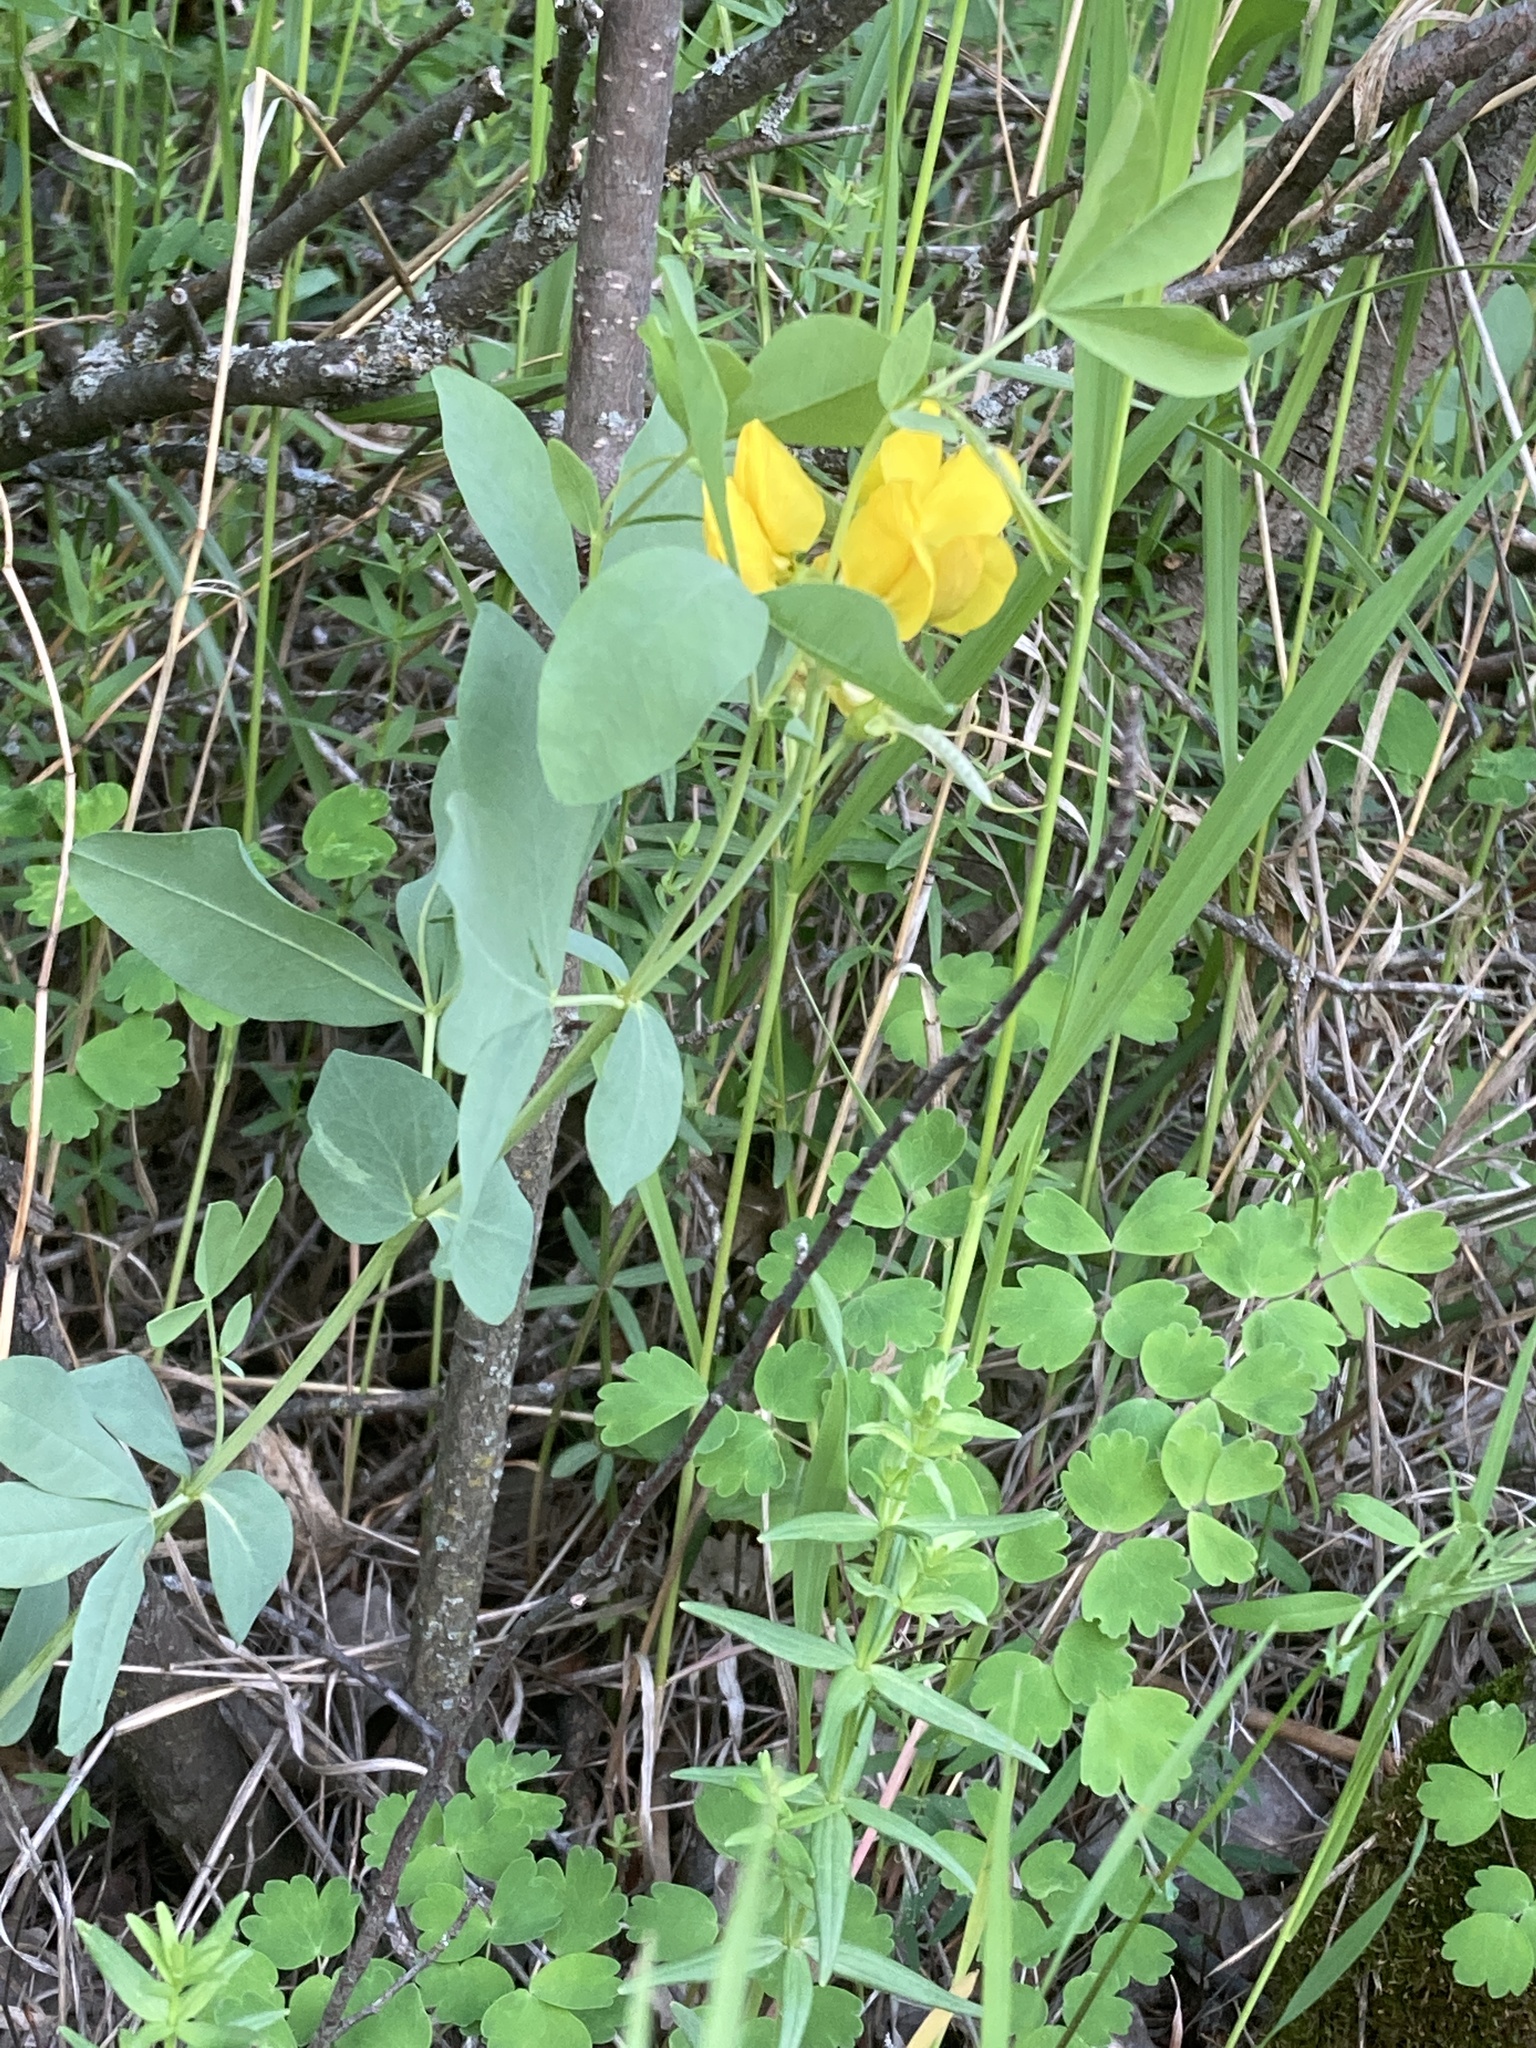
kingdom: Plantae
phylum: Tracheophyta
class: Magnoliopsida
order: Fabales
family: Fabaceae
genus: Thermopsis
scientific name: Thermopsis rhombifolia
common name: Circle-pod-pea
